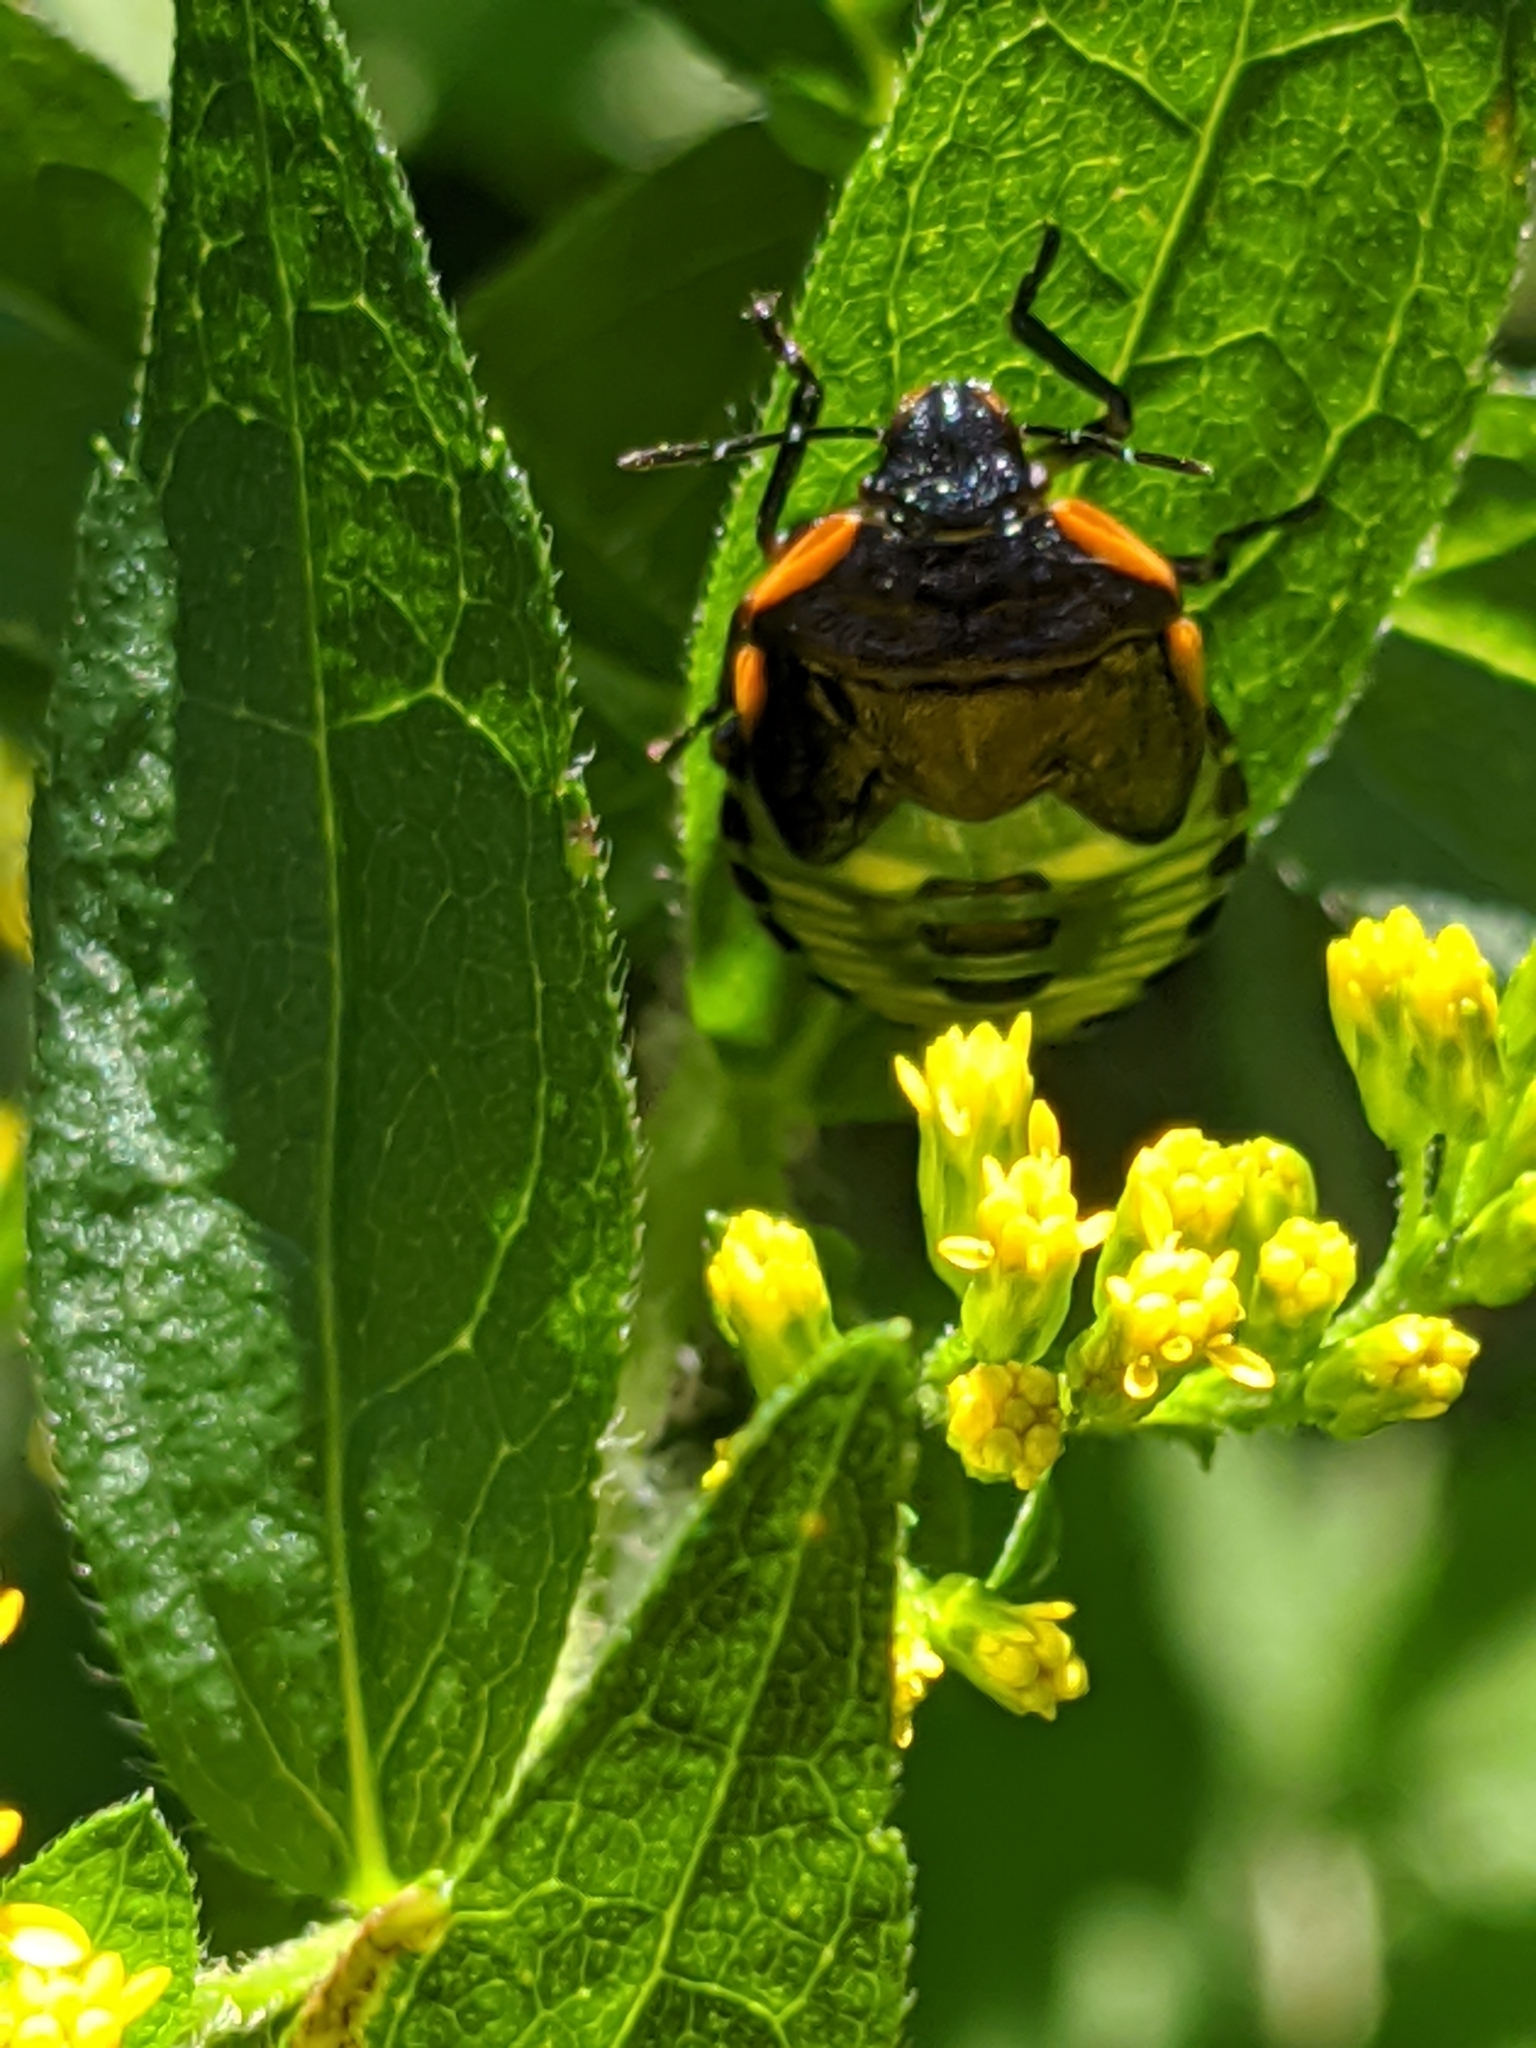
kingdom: Animalia
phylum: Arthropoda
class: Insecta
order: Hemiptera
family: Pentatomidae
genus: Chinavia
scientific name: Chinavia hilaris
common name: Green stink bug
